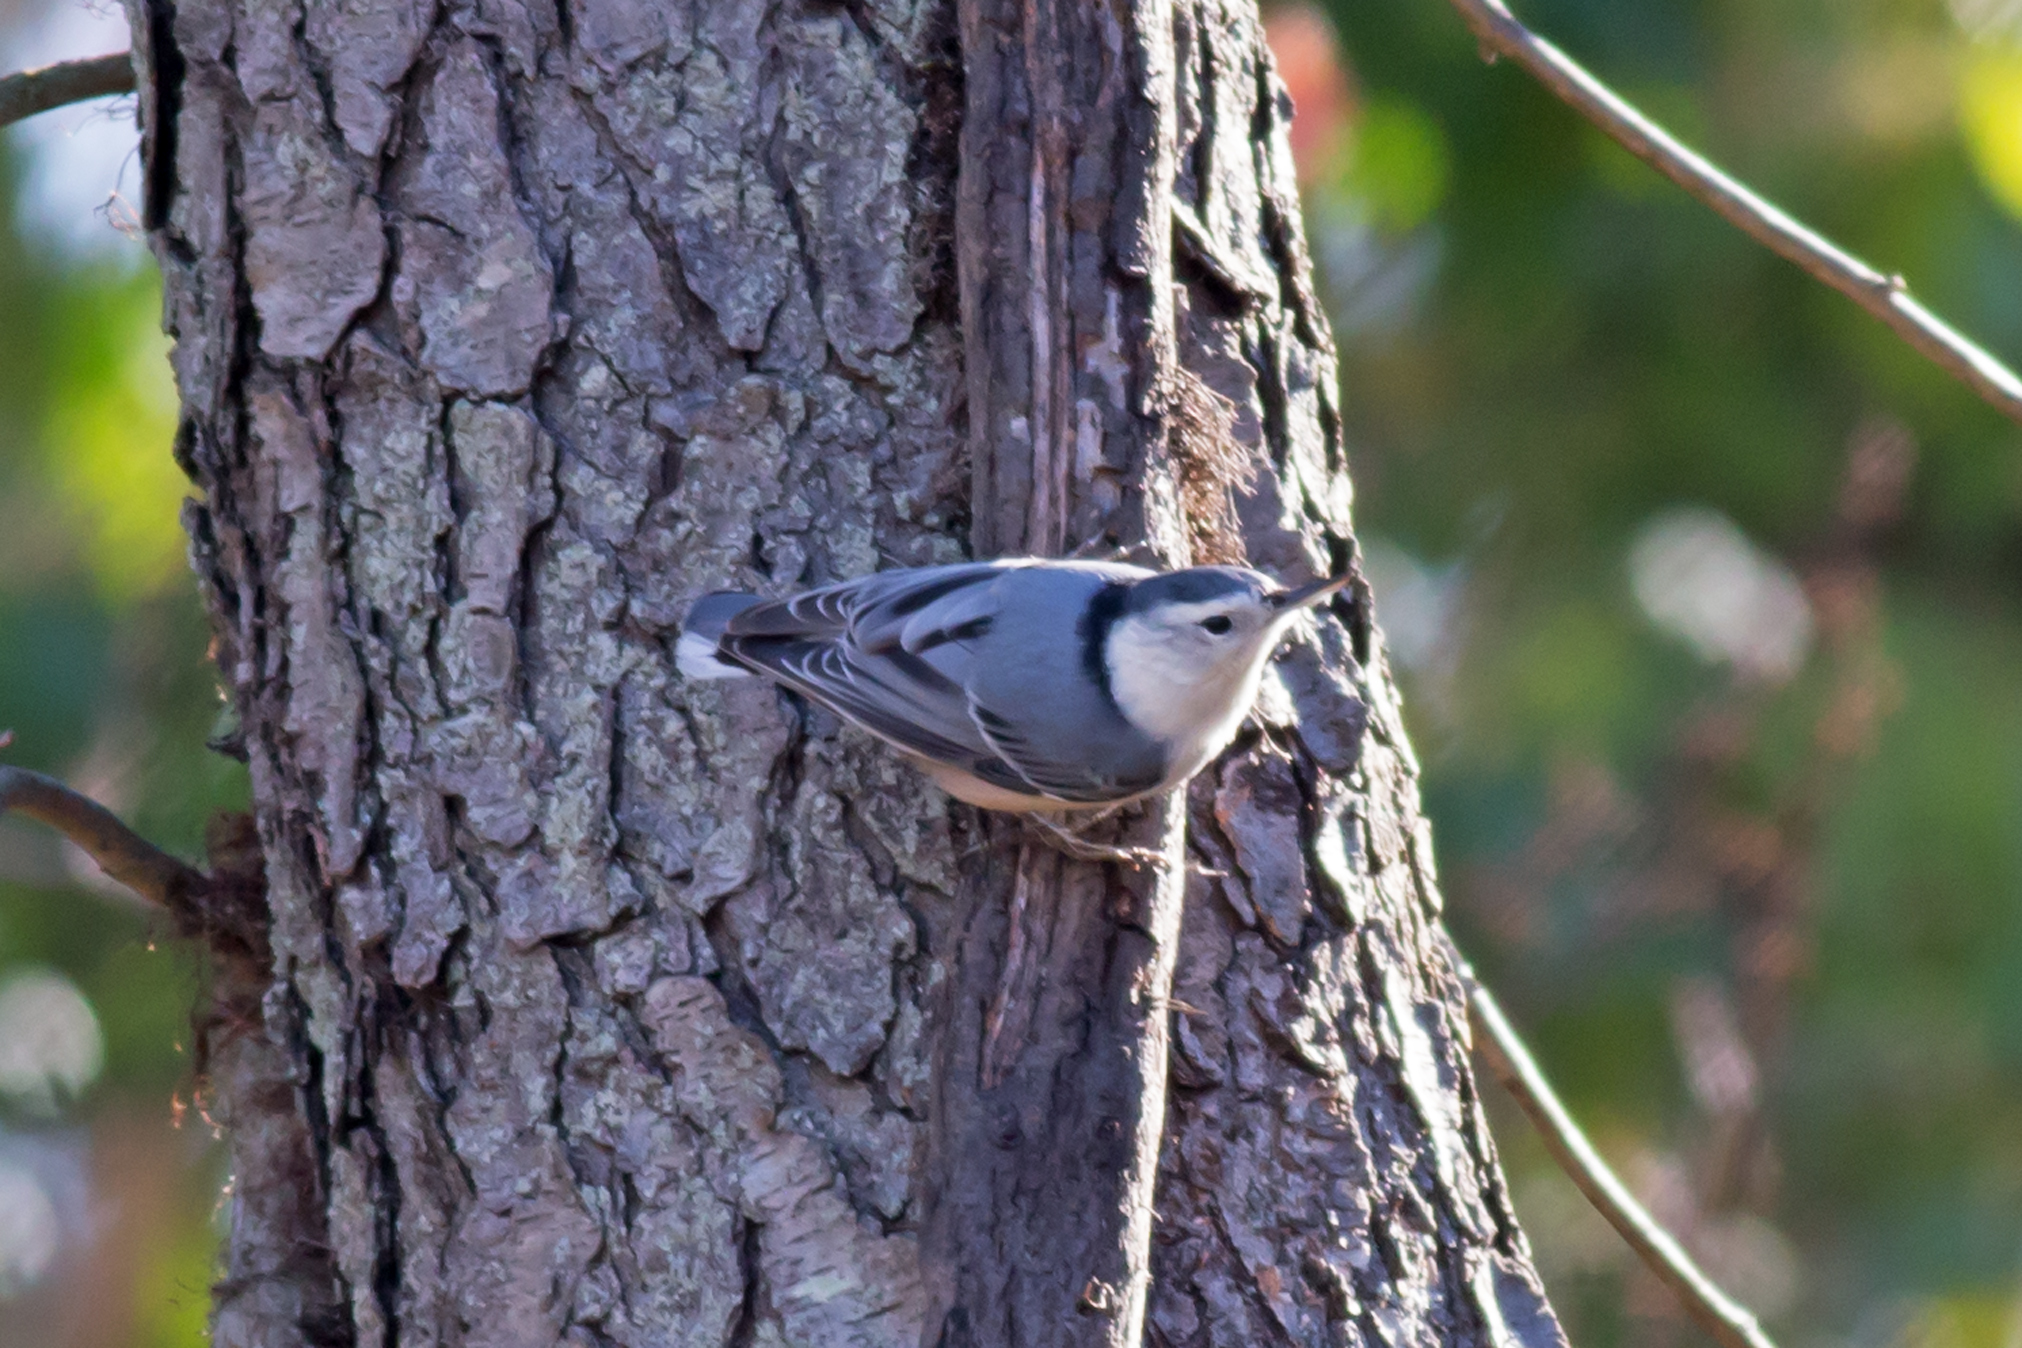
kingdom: Animalia
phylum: Chordata
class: Aves
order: Passeriformes
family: Sittidae
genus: Sitta
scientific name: Sitta carolinensis
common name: White-breasted nuthatch
